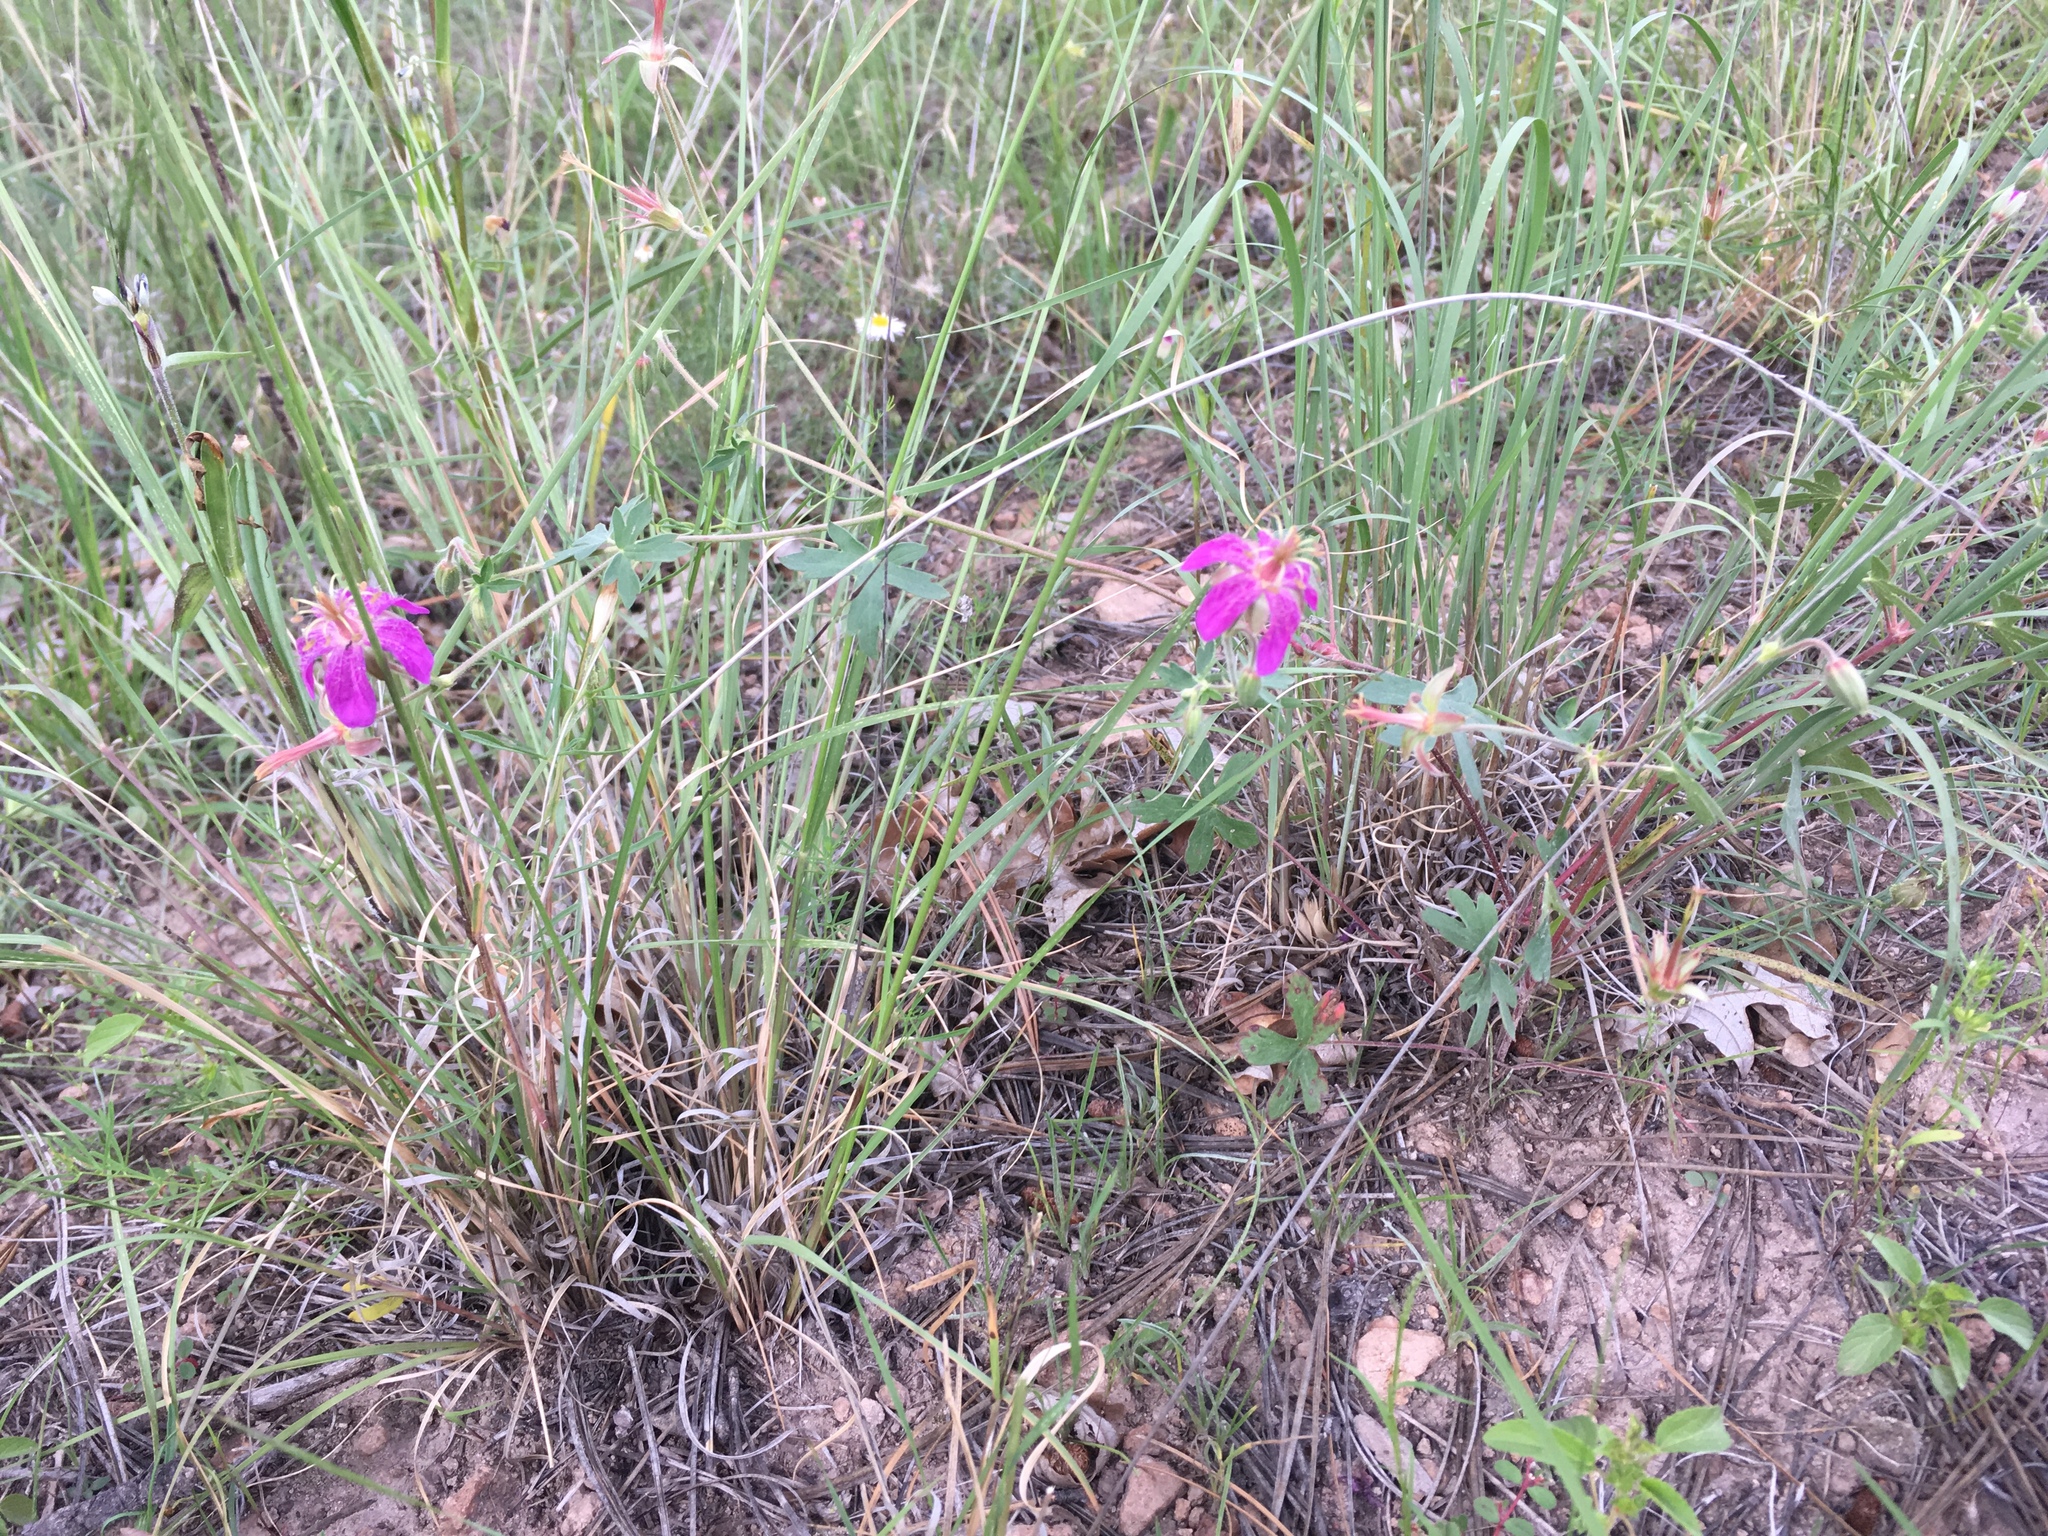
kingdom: Plantae
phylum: Tracheophyta
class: Magnoliopsida
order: Geraniales
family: Geraniaceae
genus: Geranium
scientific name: Geranium caespitosum
